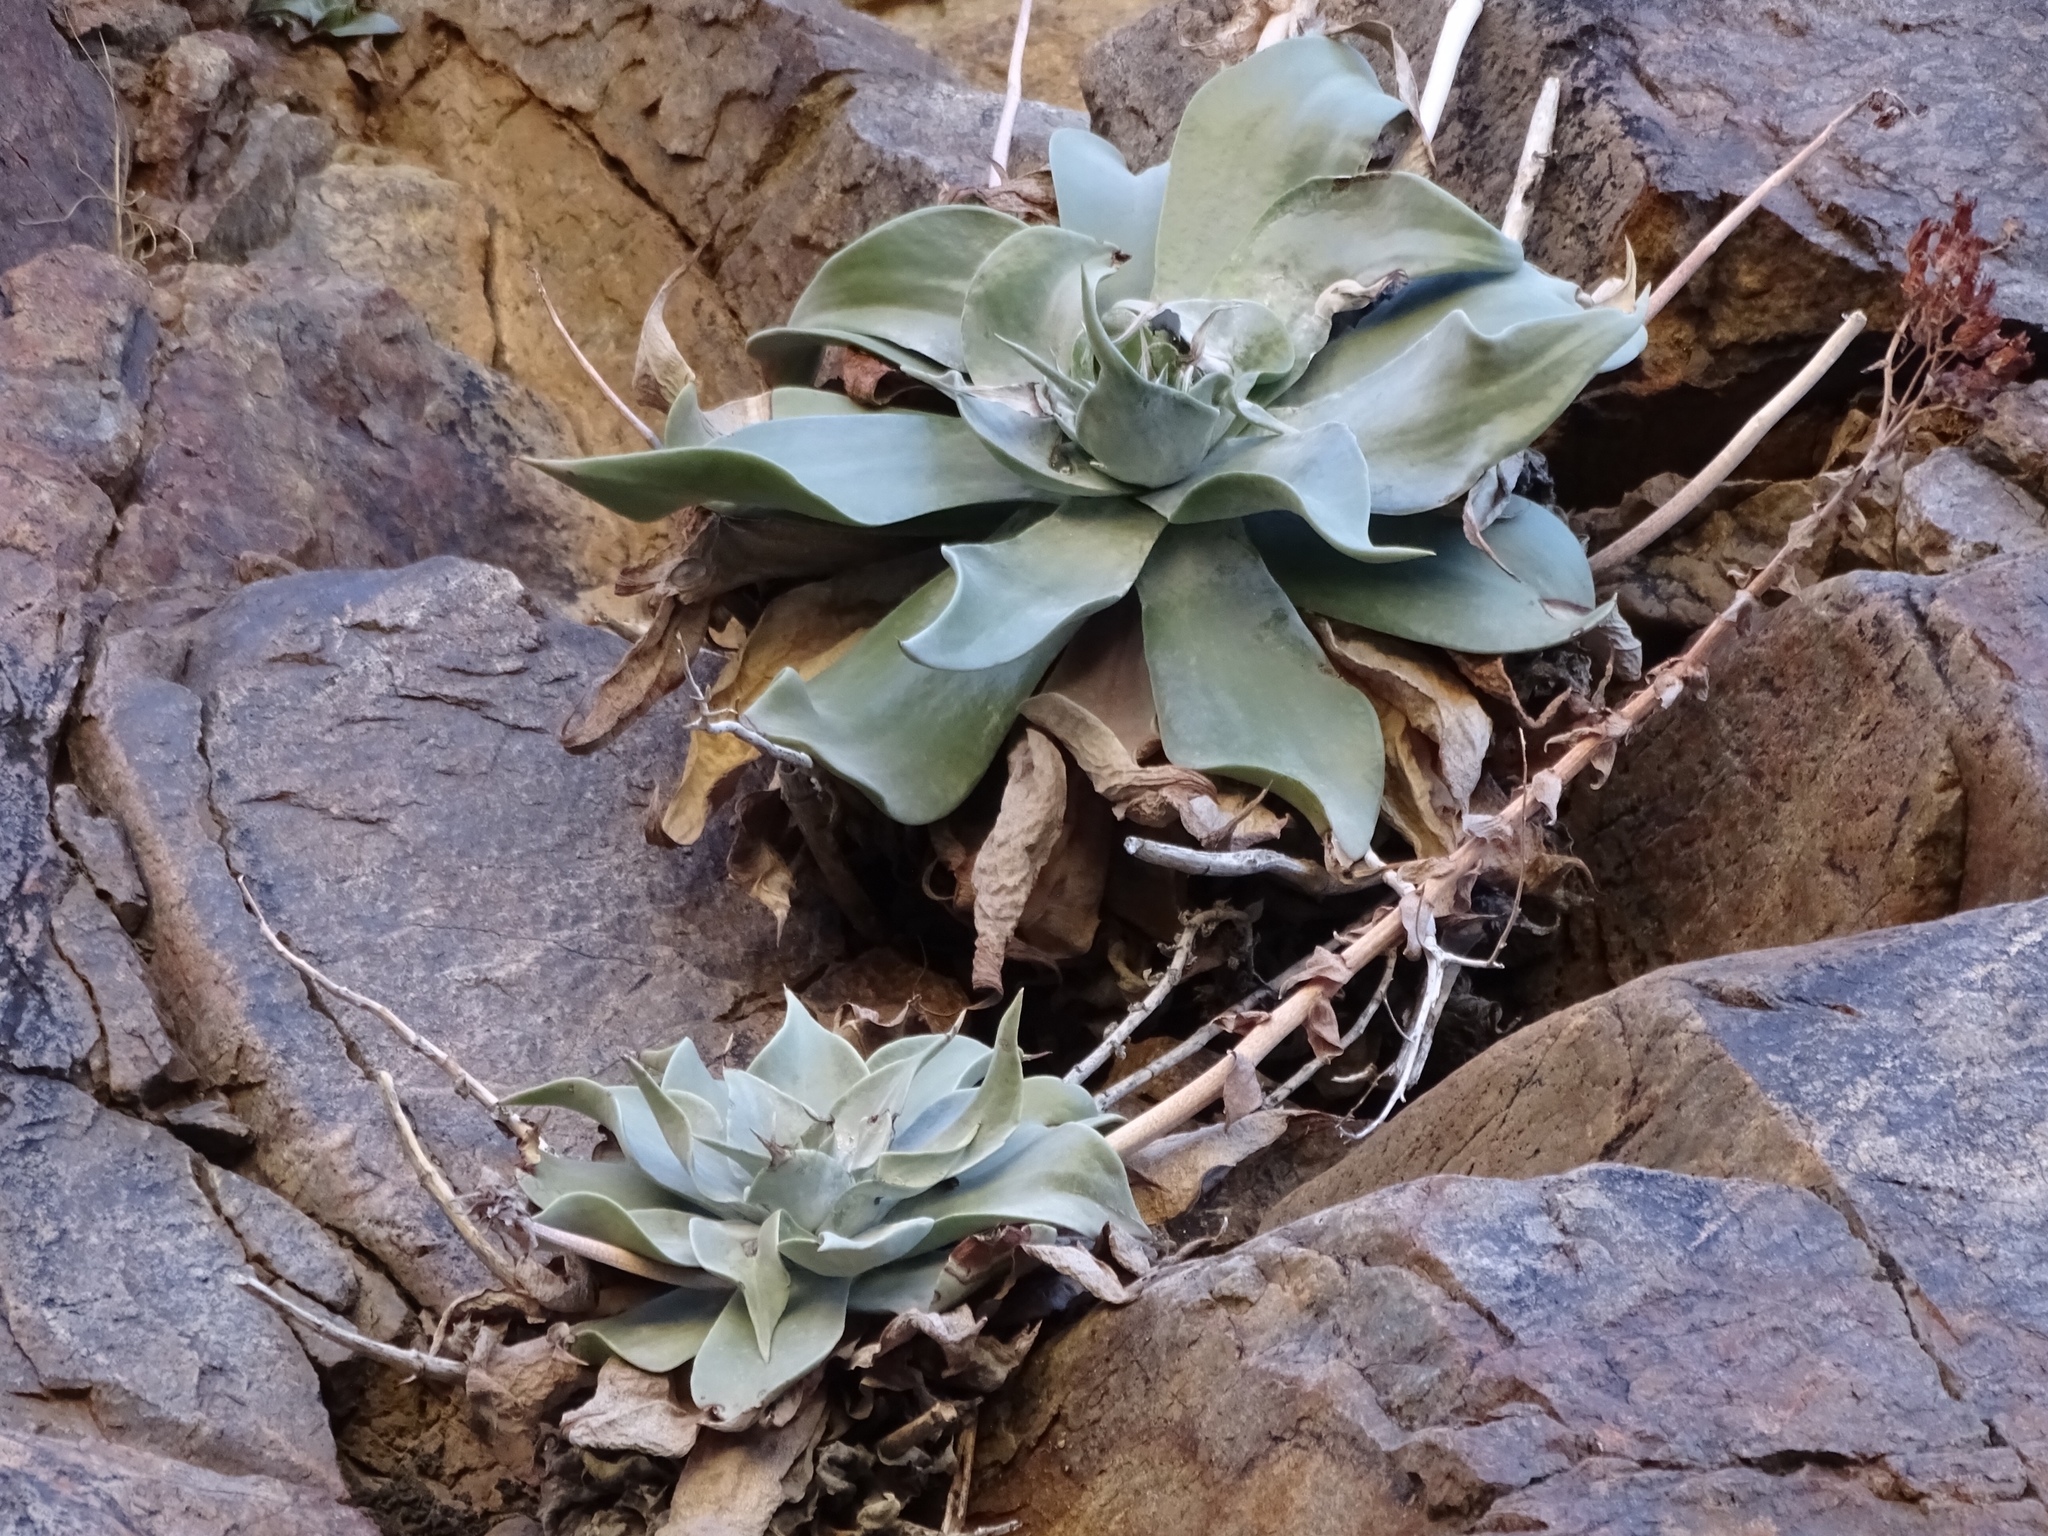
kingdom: Plantae
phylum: Tracheophyta
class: Magnoliopsida
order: Saxifragales
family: Crassulaceae
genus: Dudleya
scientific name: Dudleya arizonica
